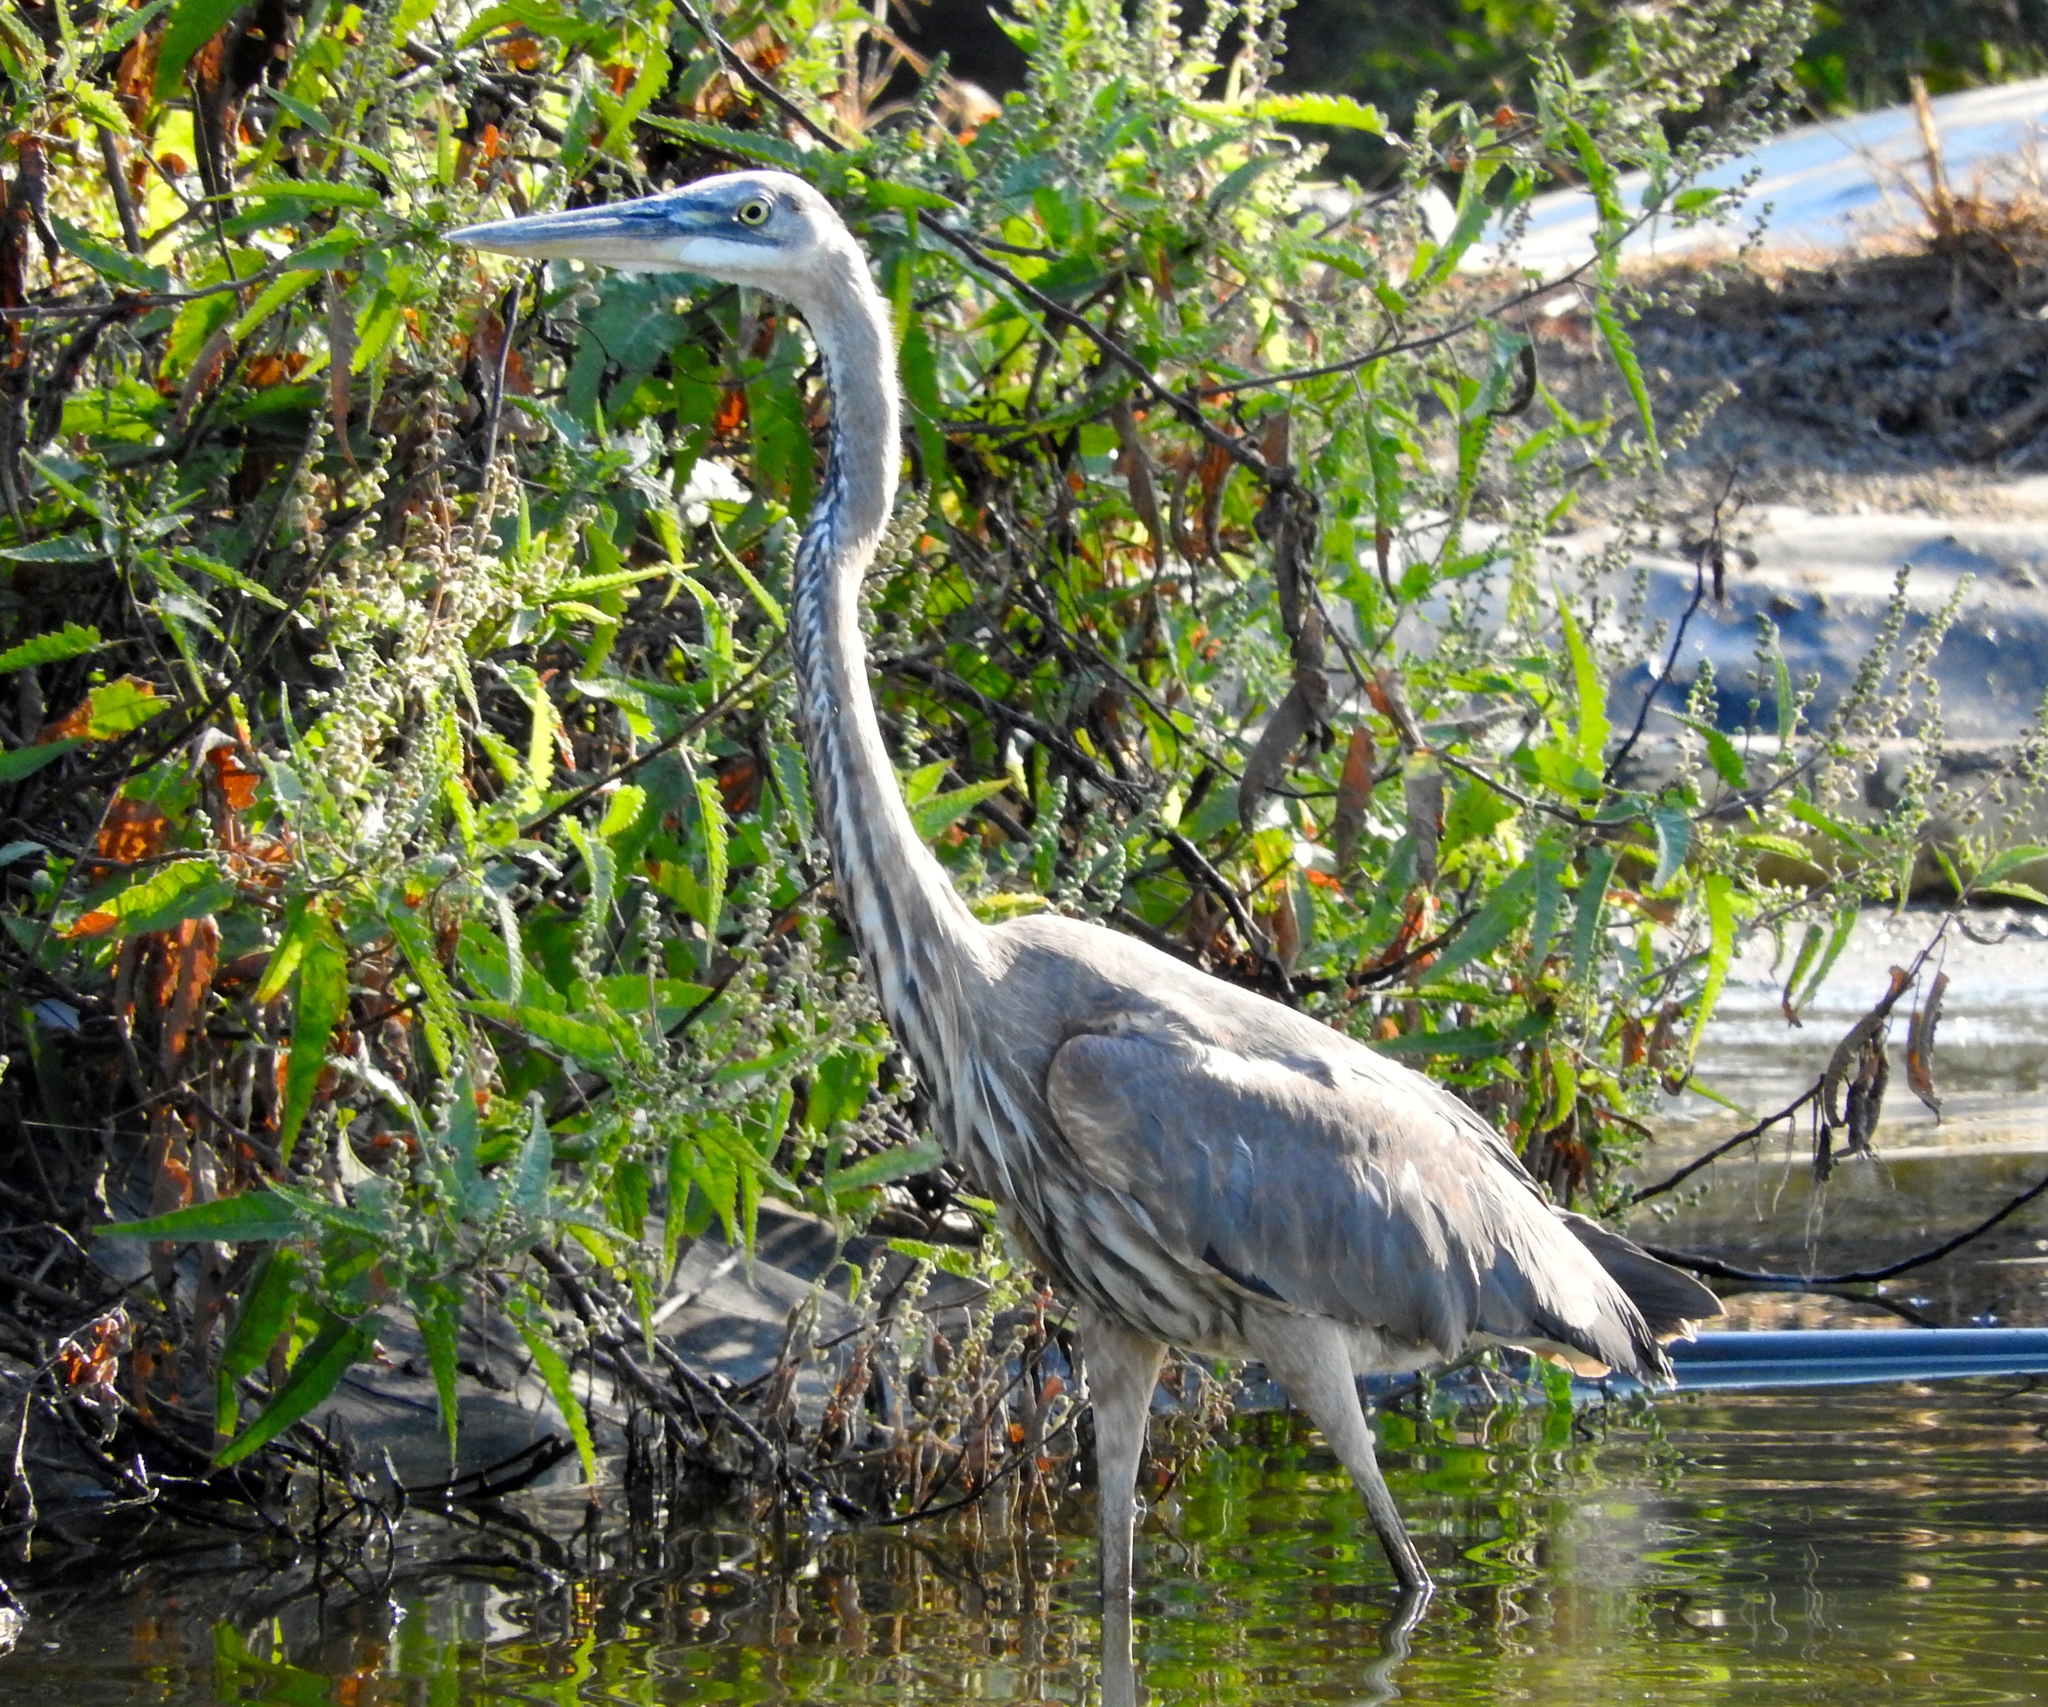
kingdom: Animalia
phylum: Chordata
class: Aves
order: Pelecaniformes
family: Ardeidae
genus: Ardea
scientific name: Ardea herodias
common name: Great blue heron
